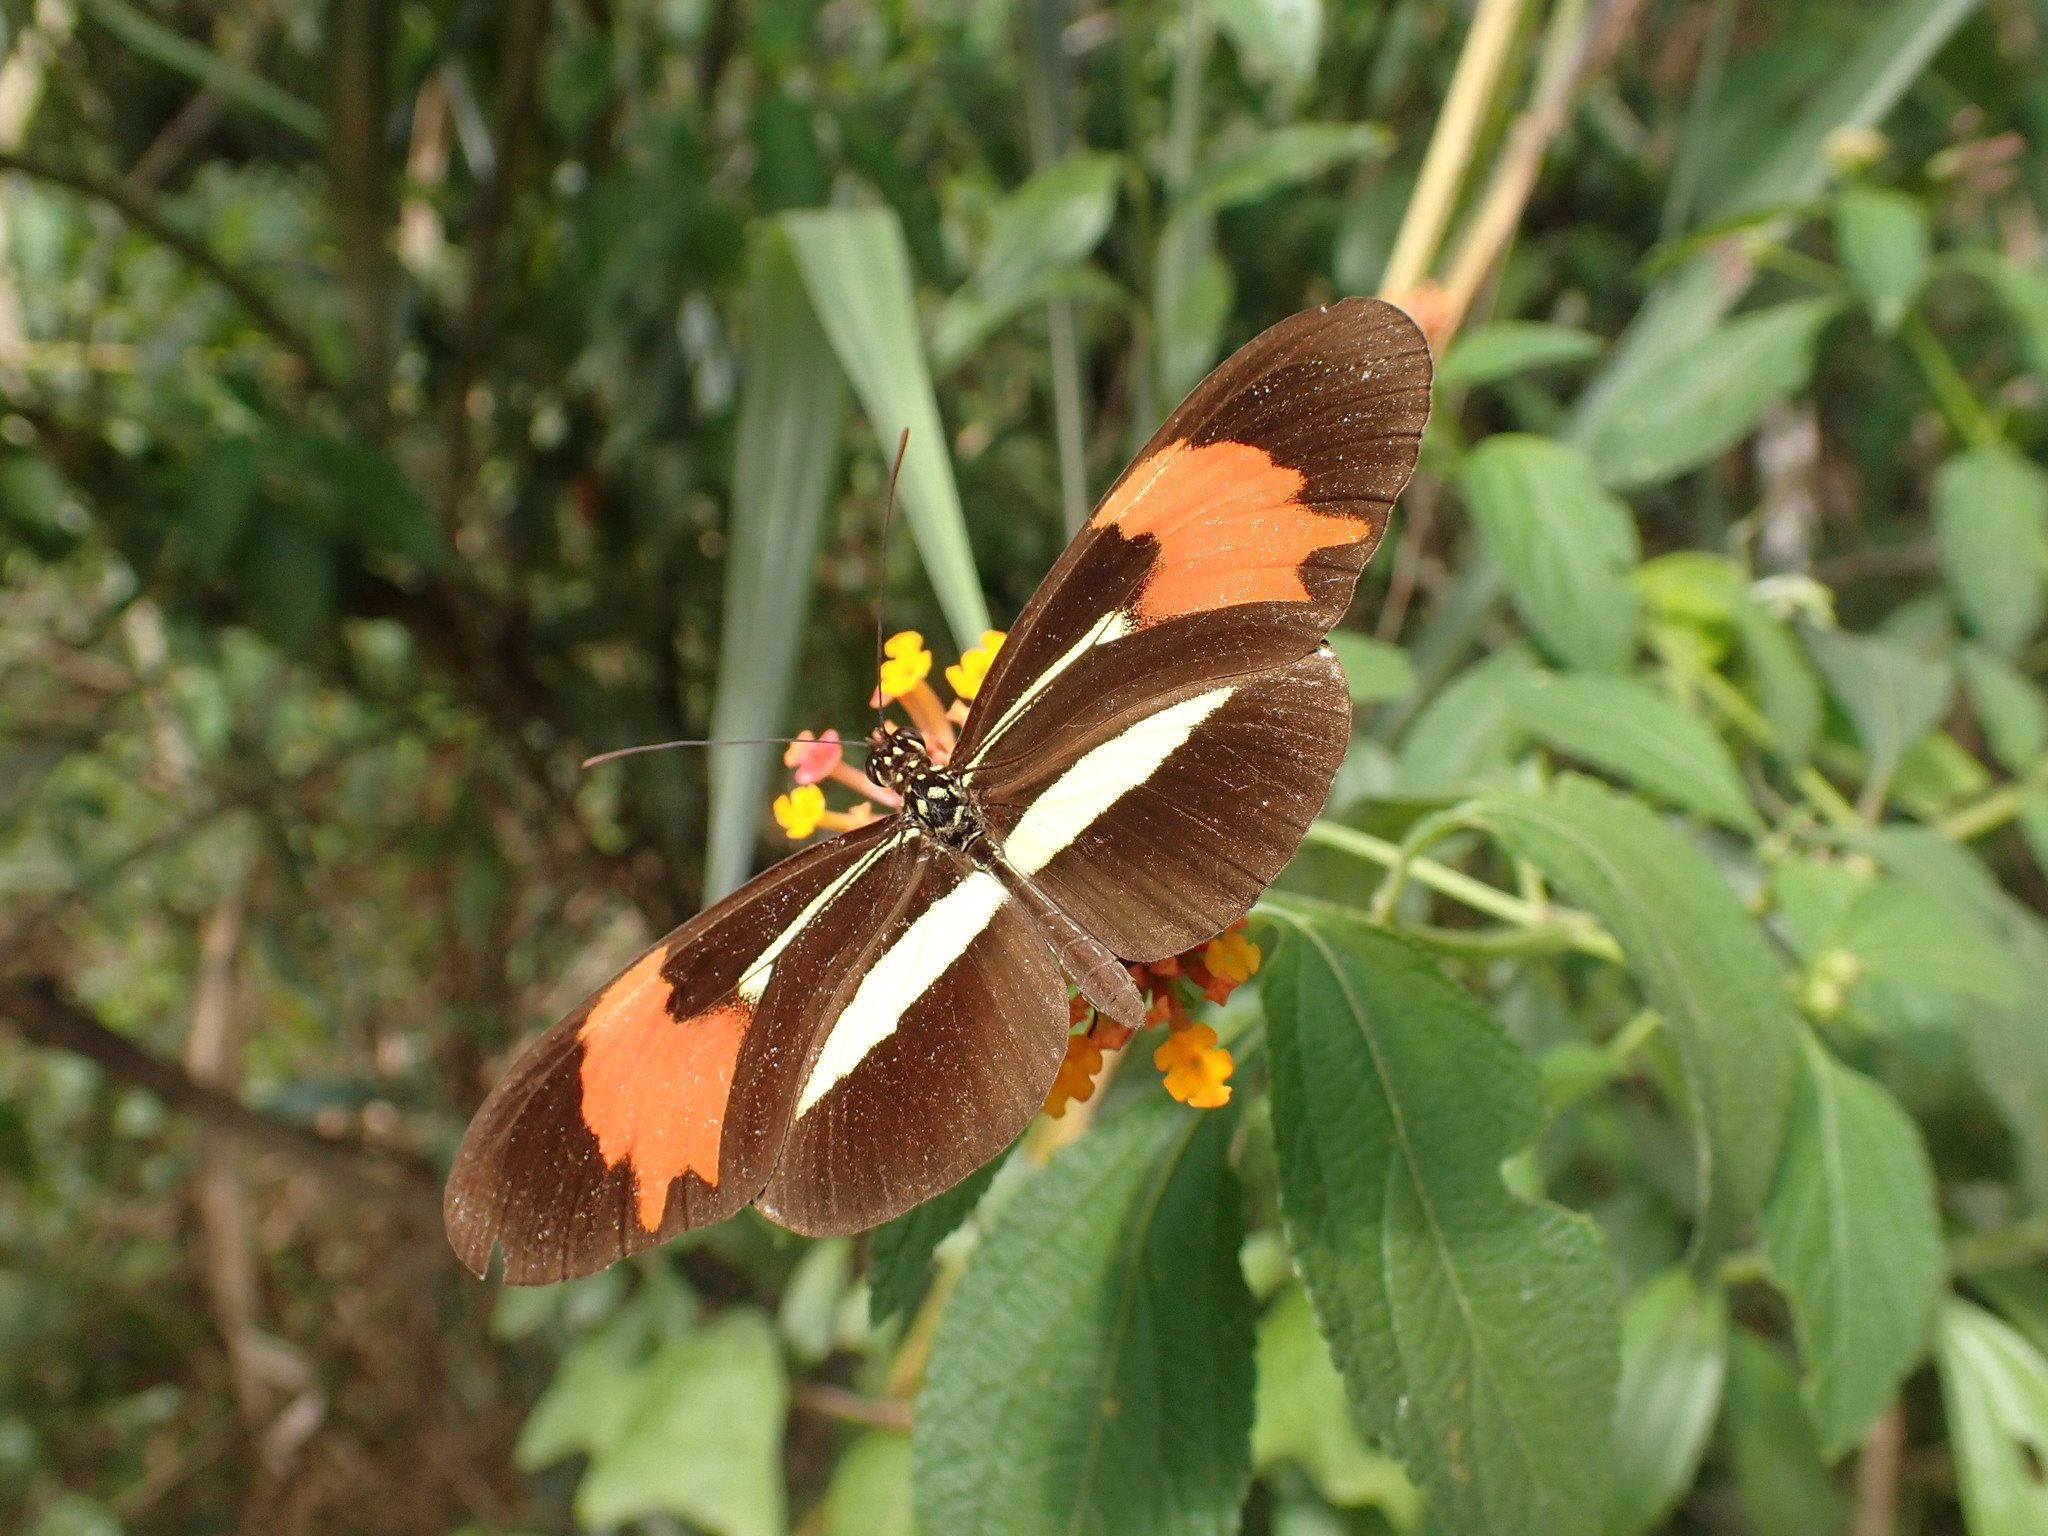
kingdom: Animalia
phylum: Arthropoda
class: Insecta
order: Lepidoptera
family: Nymphalidae
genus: Heliconius
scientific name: Heliconius besckei
